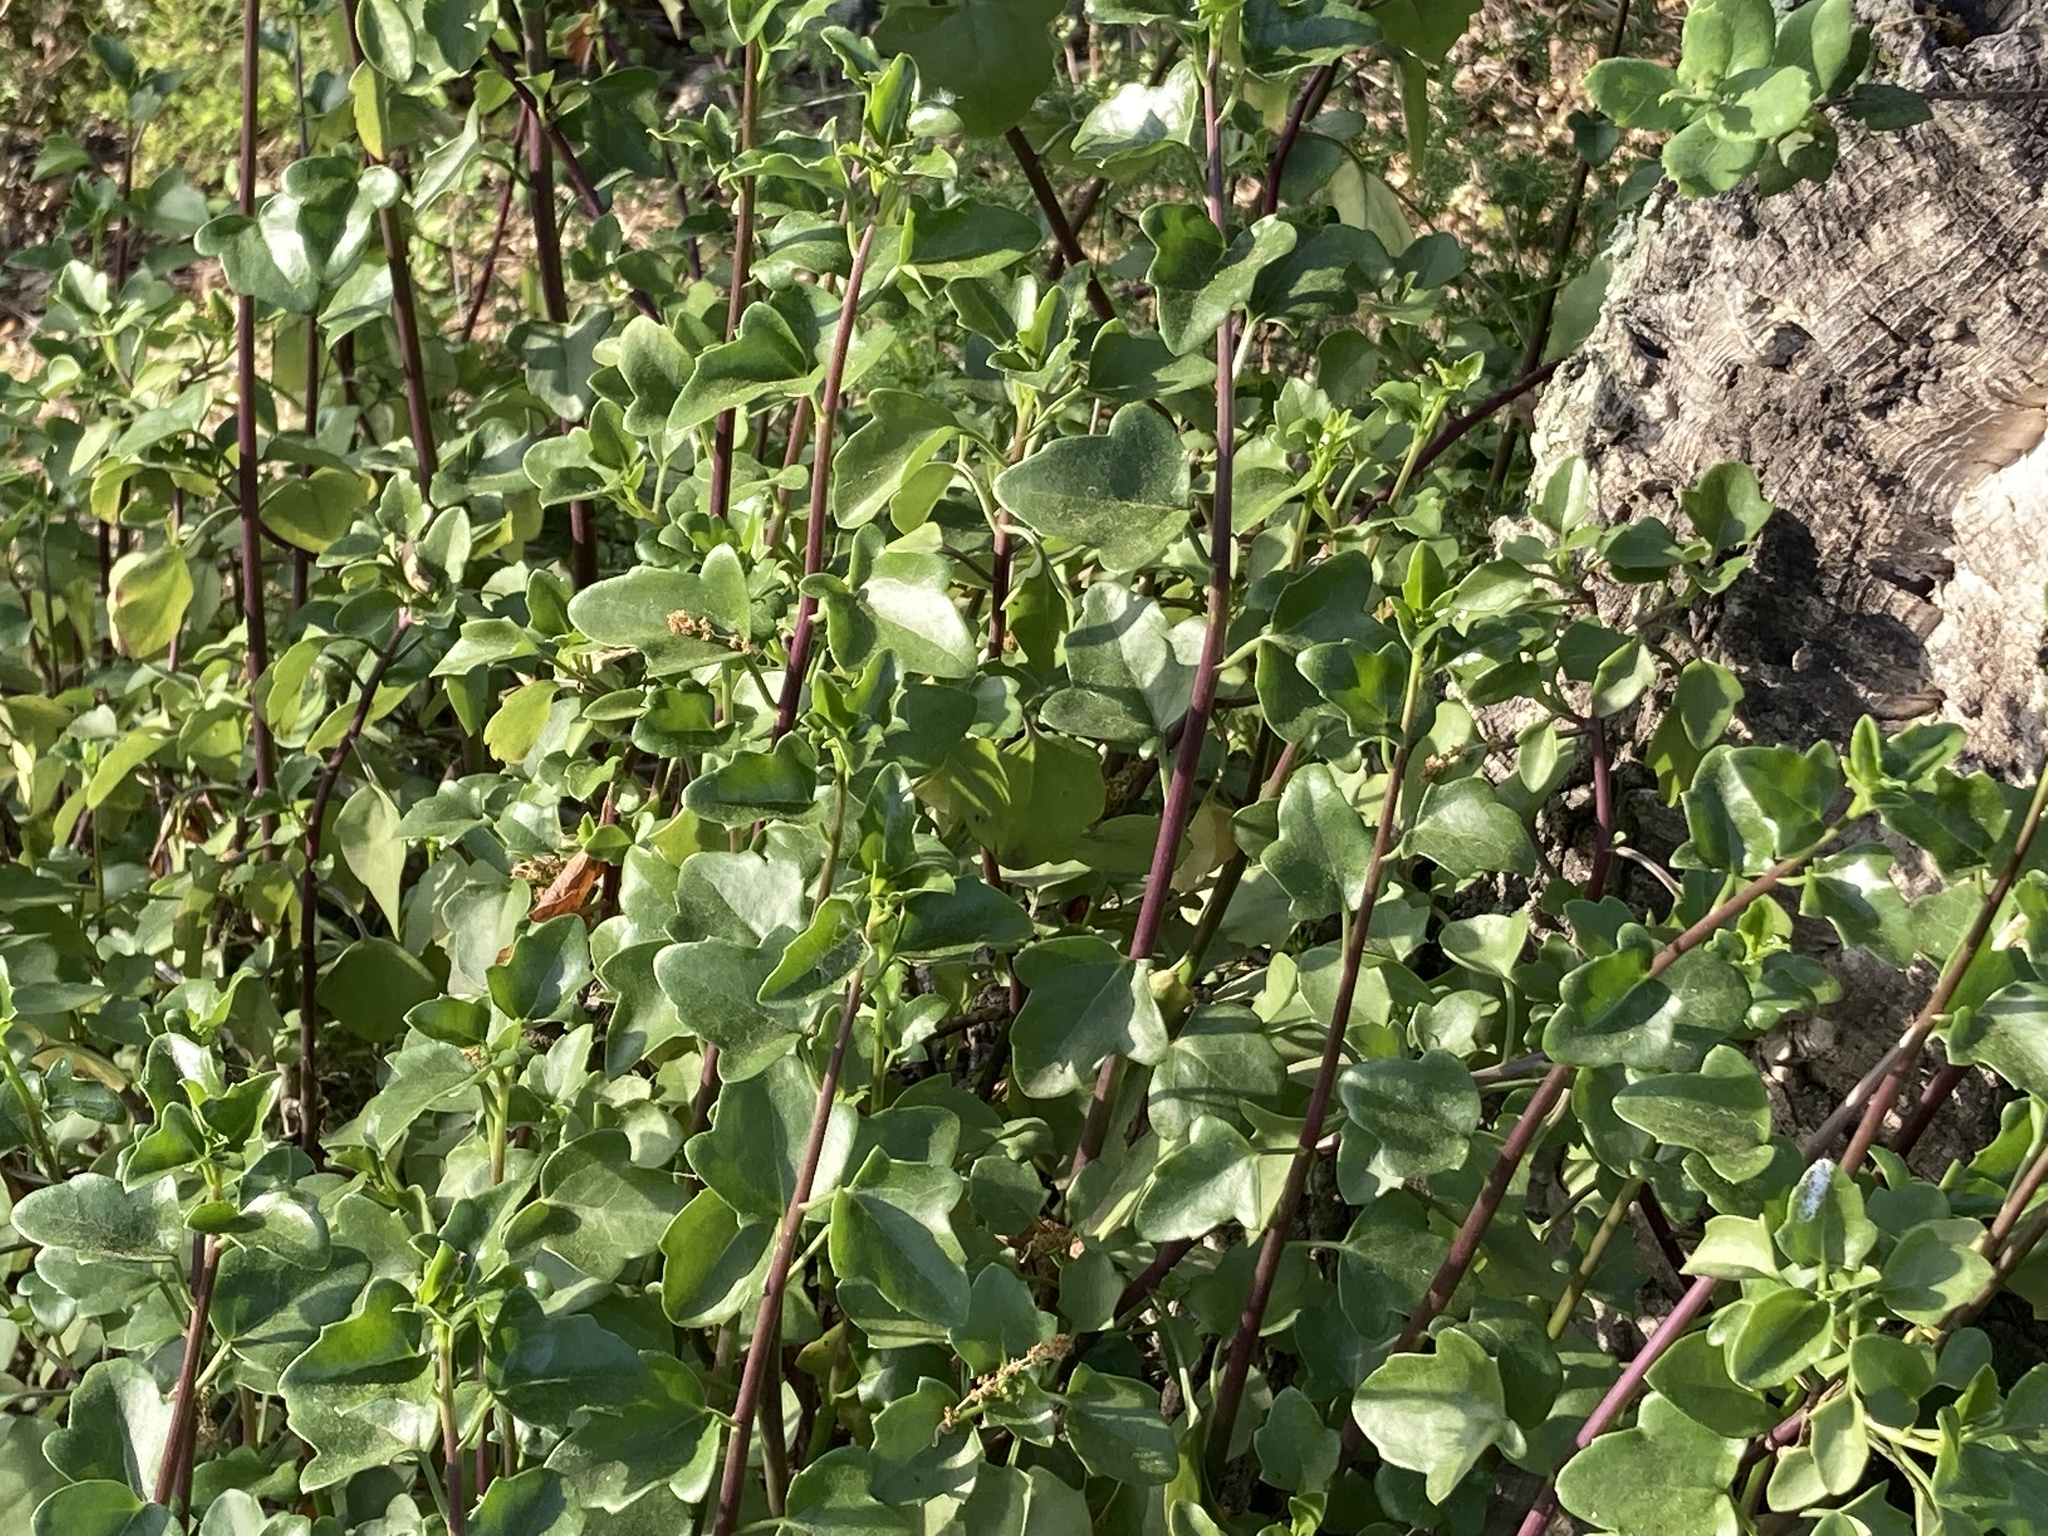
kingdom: Plantae
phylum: Tracheophyta
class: Magnoliopsida
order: Asterales
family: Asteraceae
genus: Senecio
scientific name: Senecio angulatus
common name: Climbing groundsel
